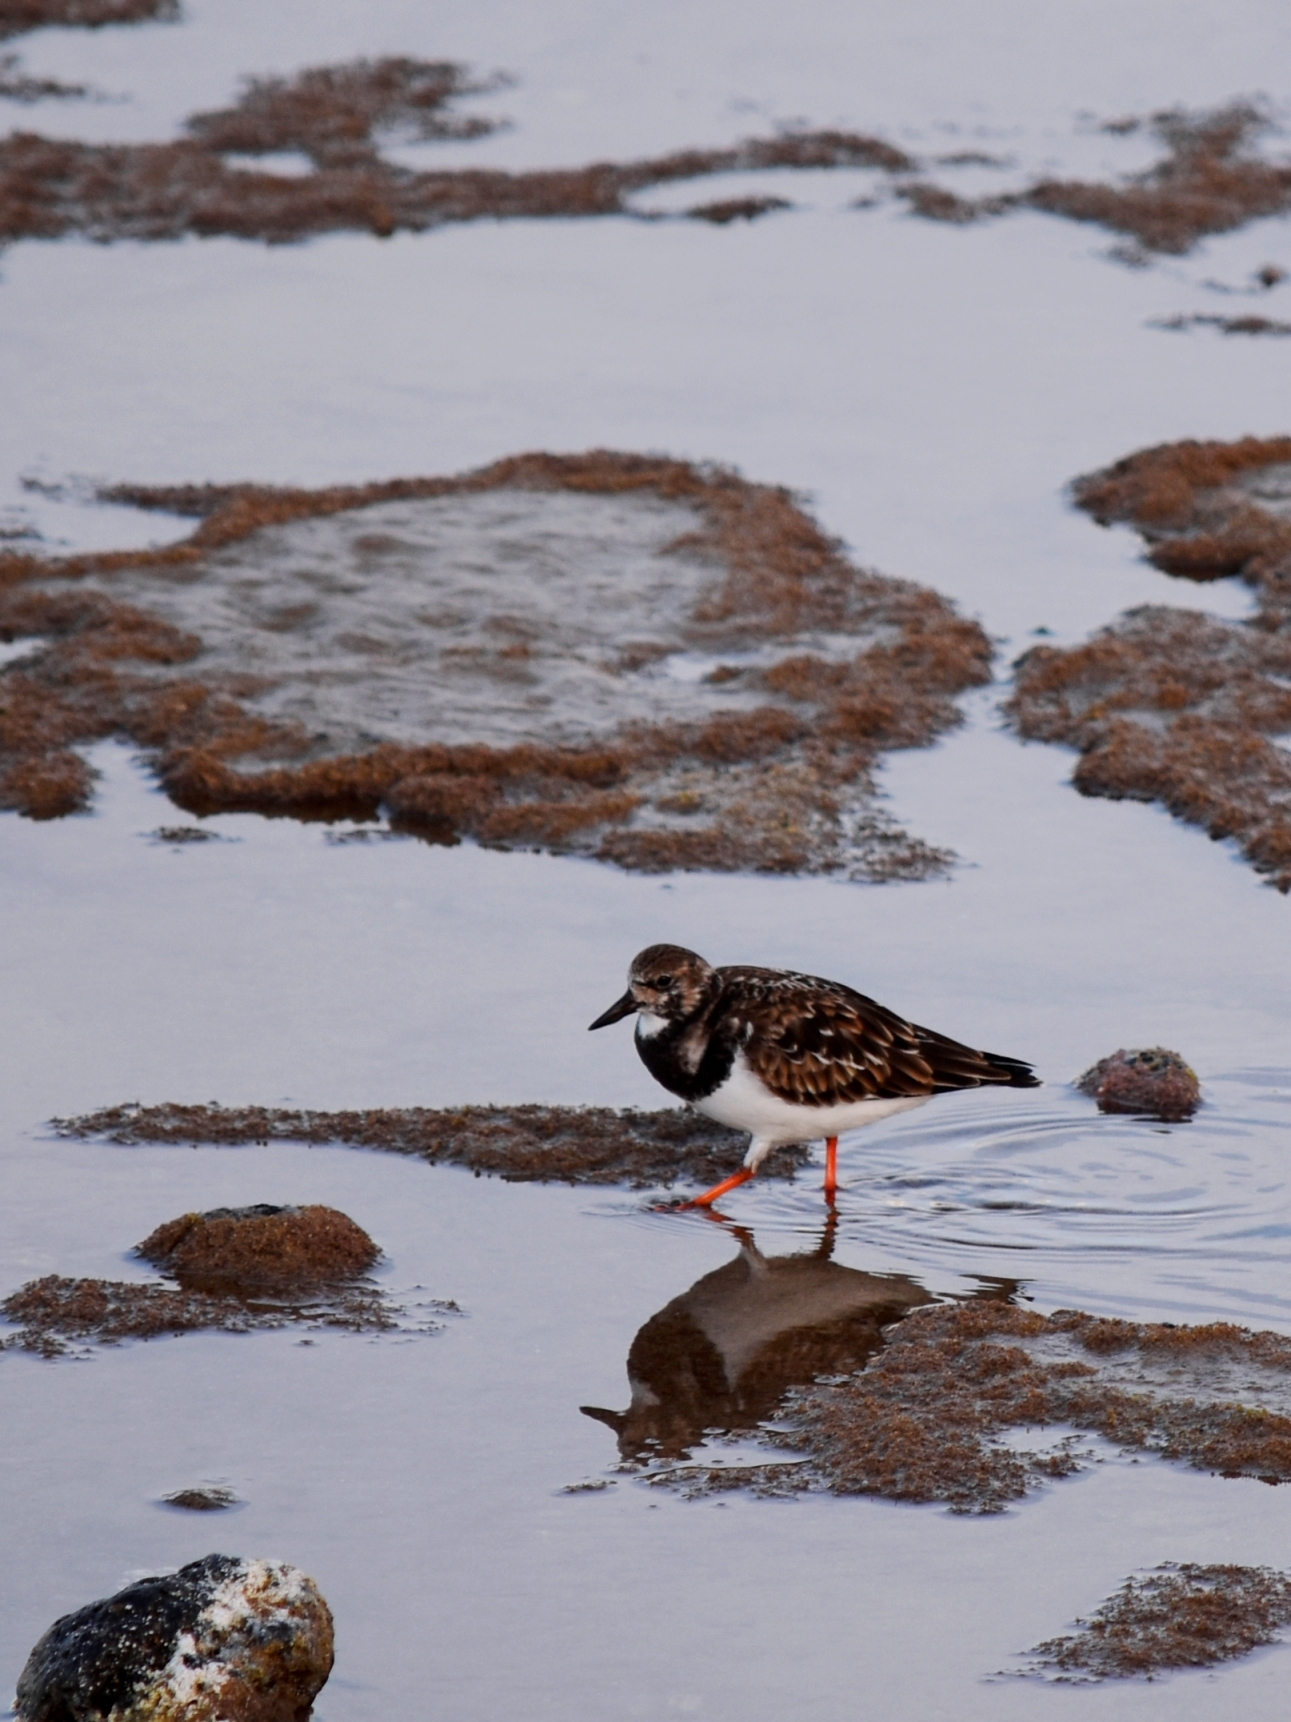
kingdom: Animalia
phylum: Chordata
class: Aves
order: Charadriiformes
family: Scolopacidae
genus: Arenaria
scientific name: Arenaria interpres
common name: Ruddy turnstone
